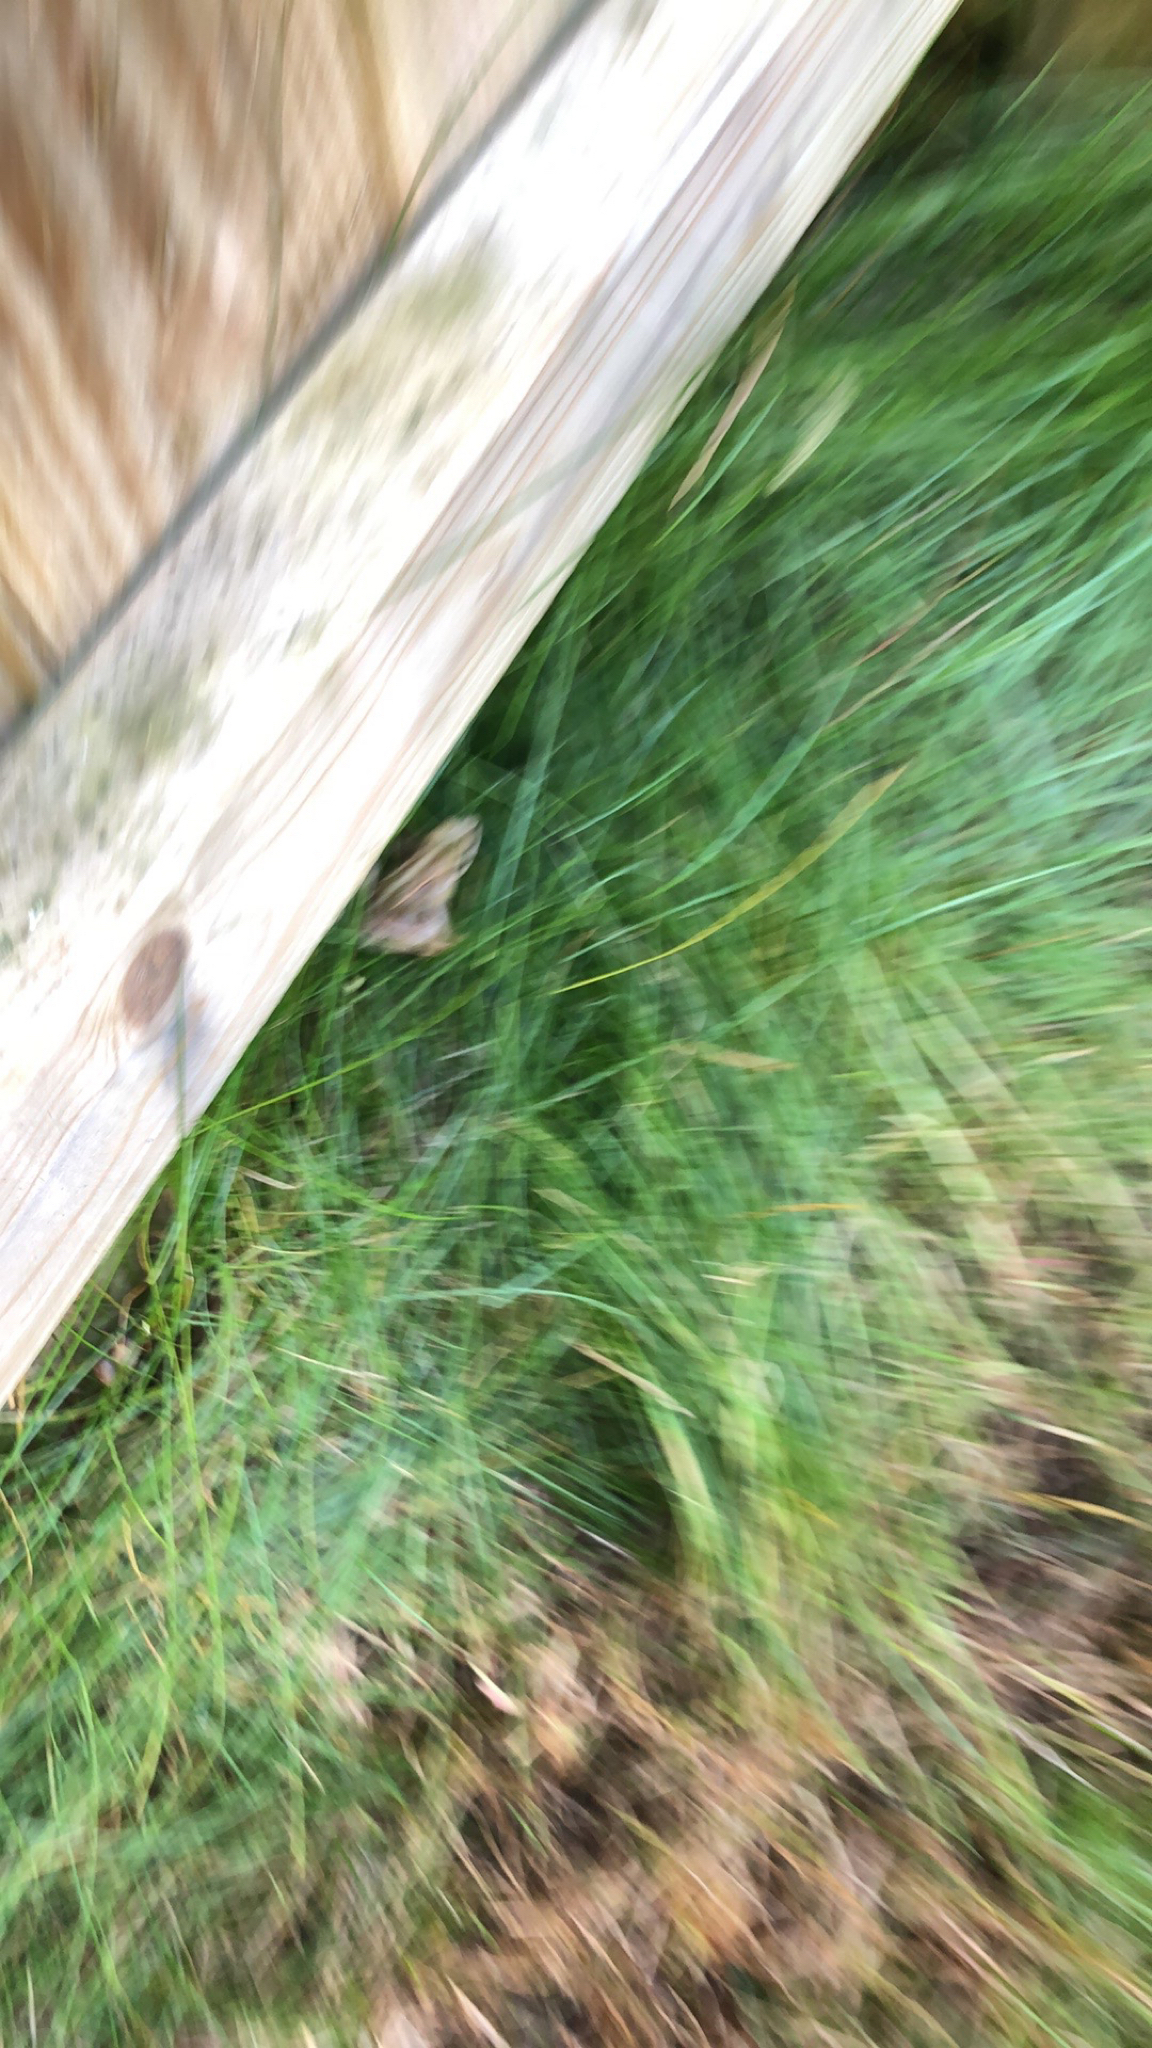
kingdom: Animalia
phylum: Chordata
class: Amphibia
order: Anura
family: Ranidae
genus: Rana
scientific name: Rana temporaria
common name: Common frog
